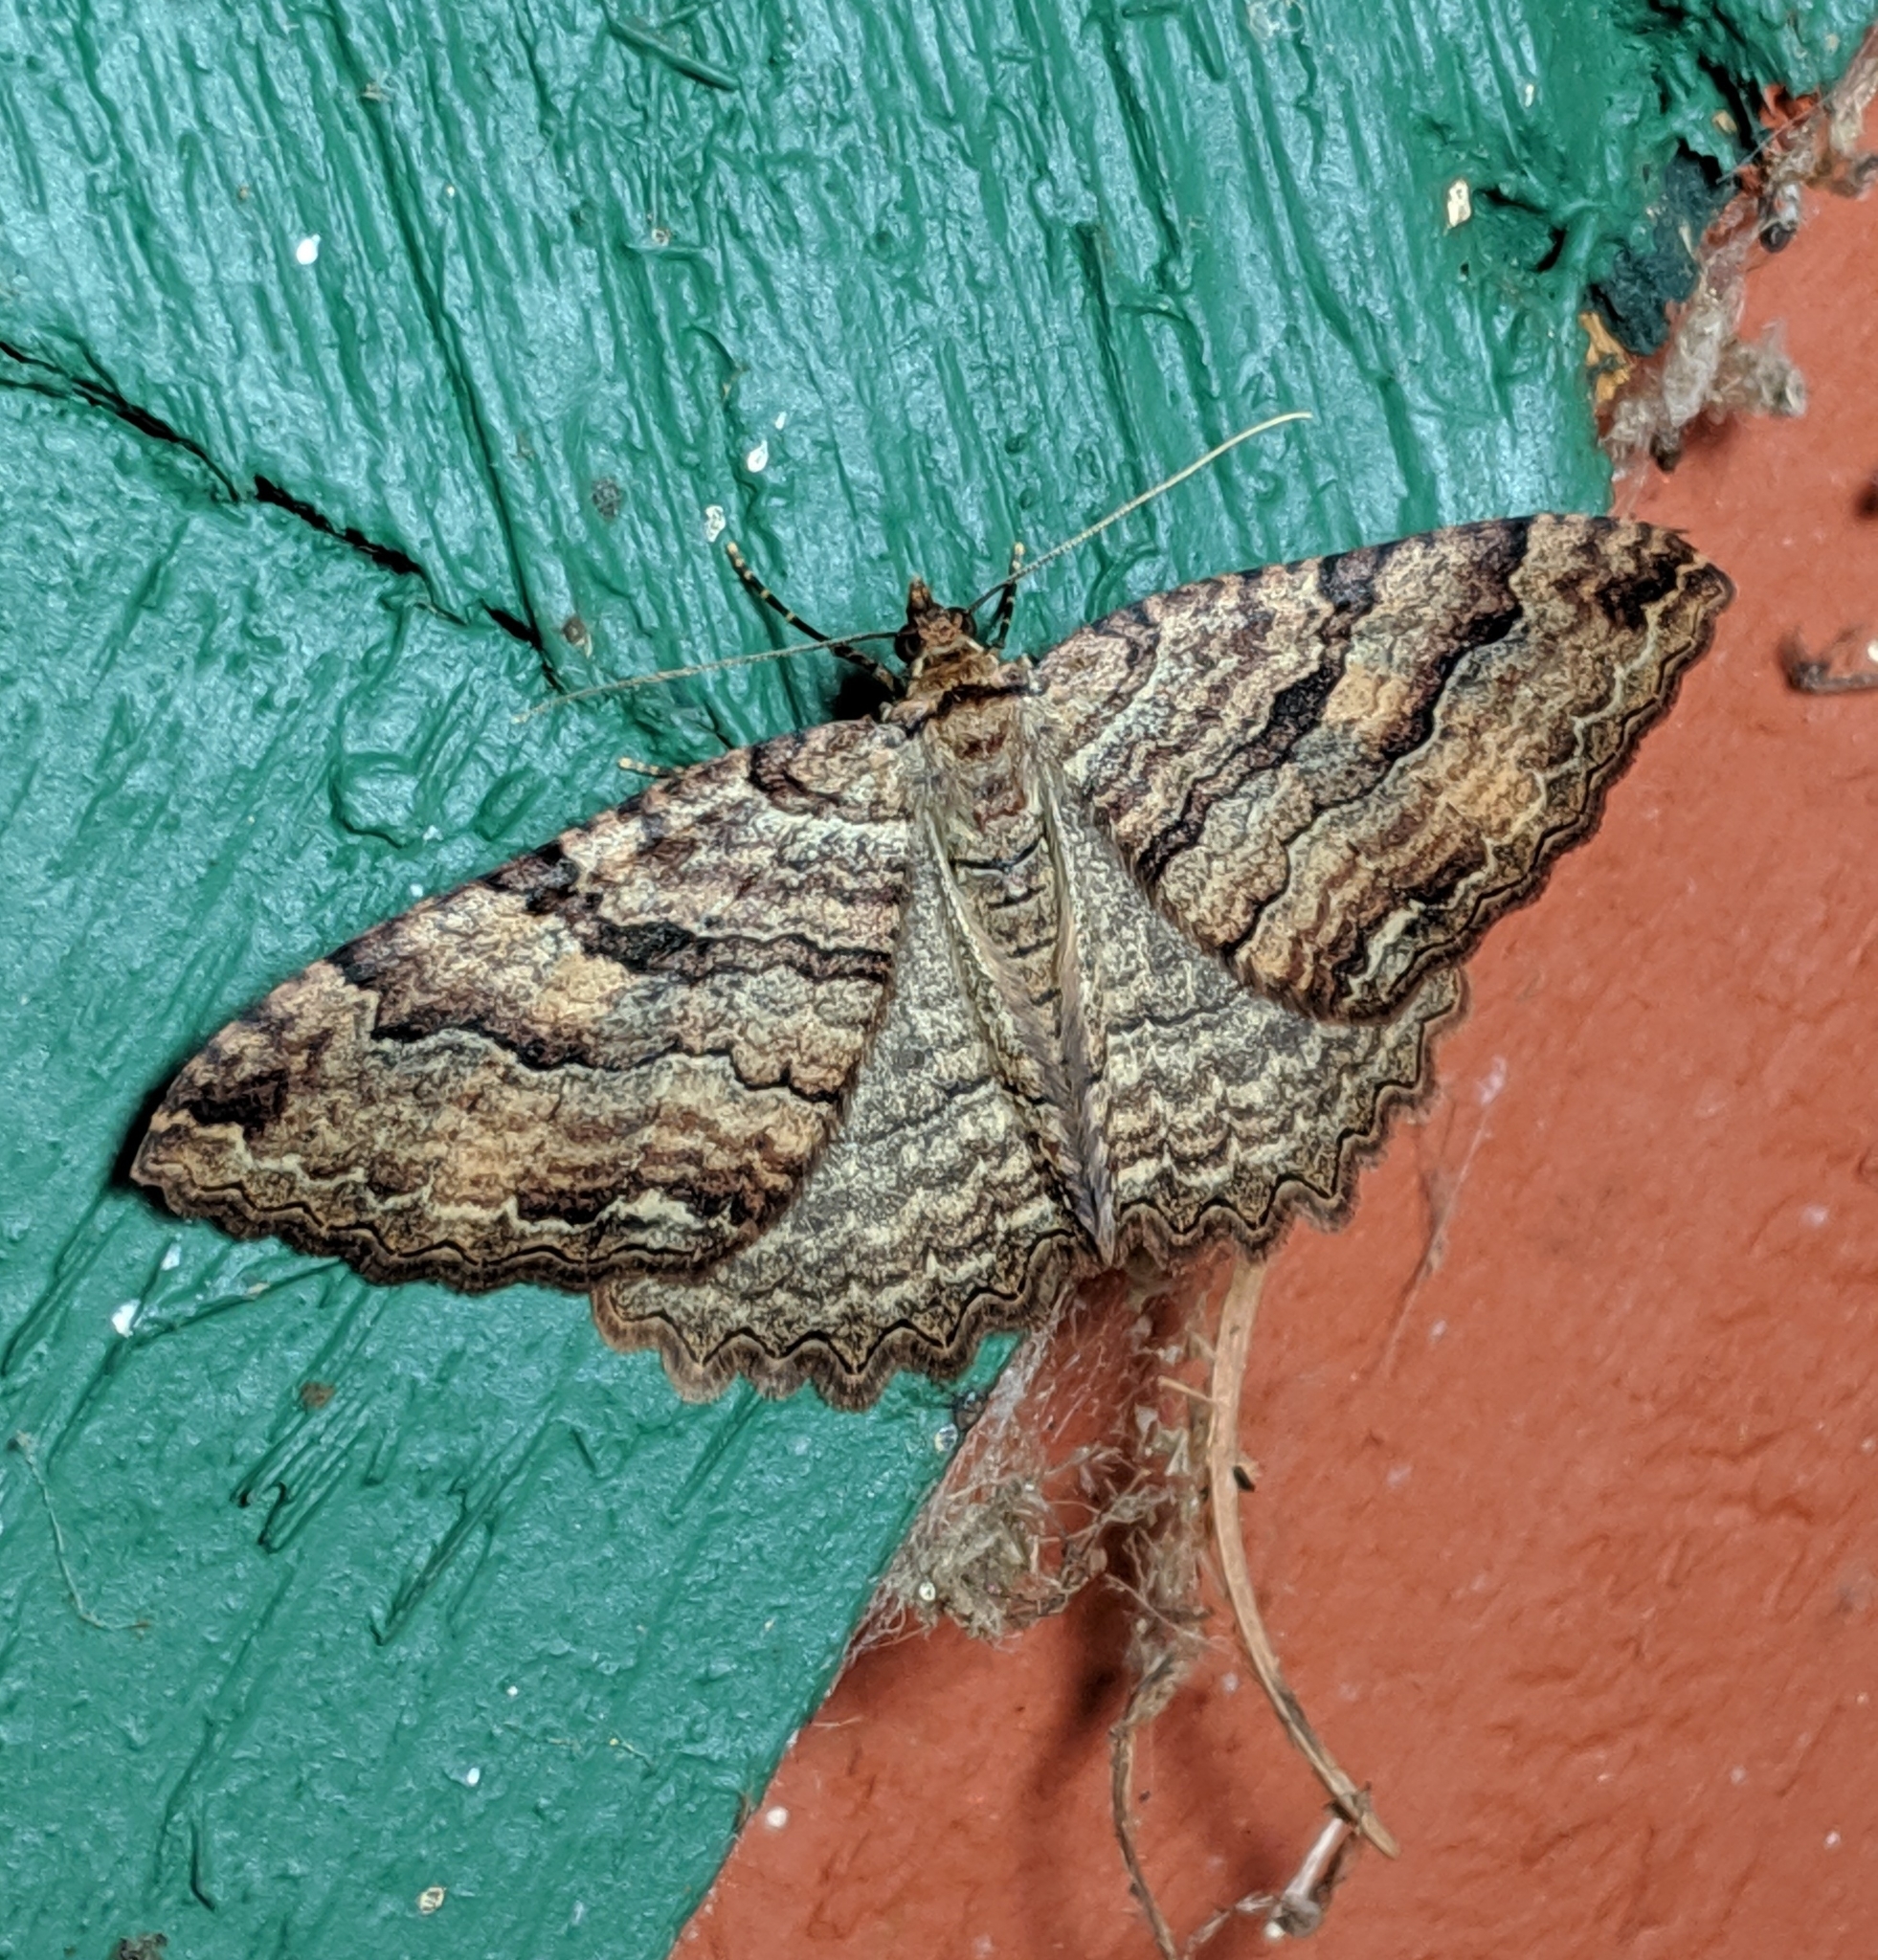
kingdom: Animalia
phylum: Arthropoda
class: Insecta
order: Lepidoptera
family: Geometridae
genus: Triphosa
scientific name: Triphosa haesitata
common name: Tissue moth
